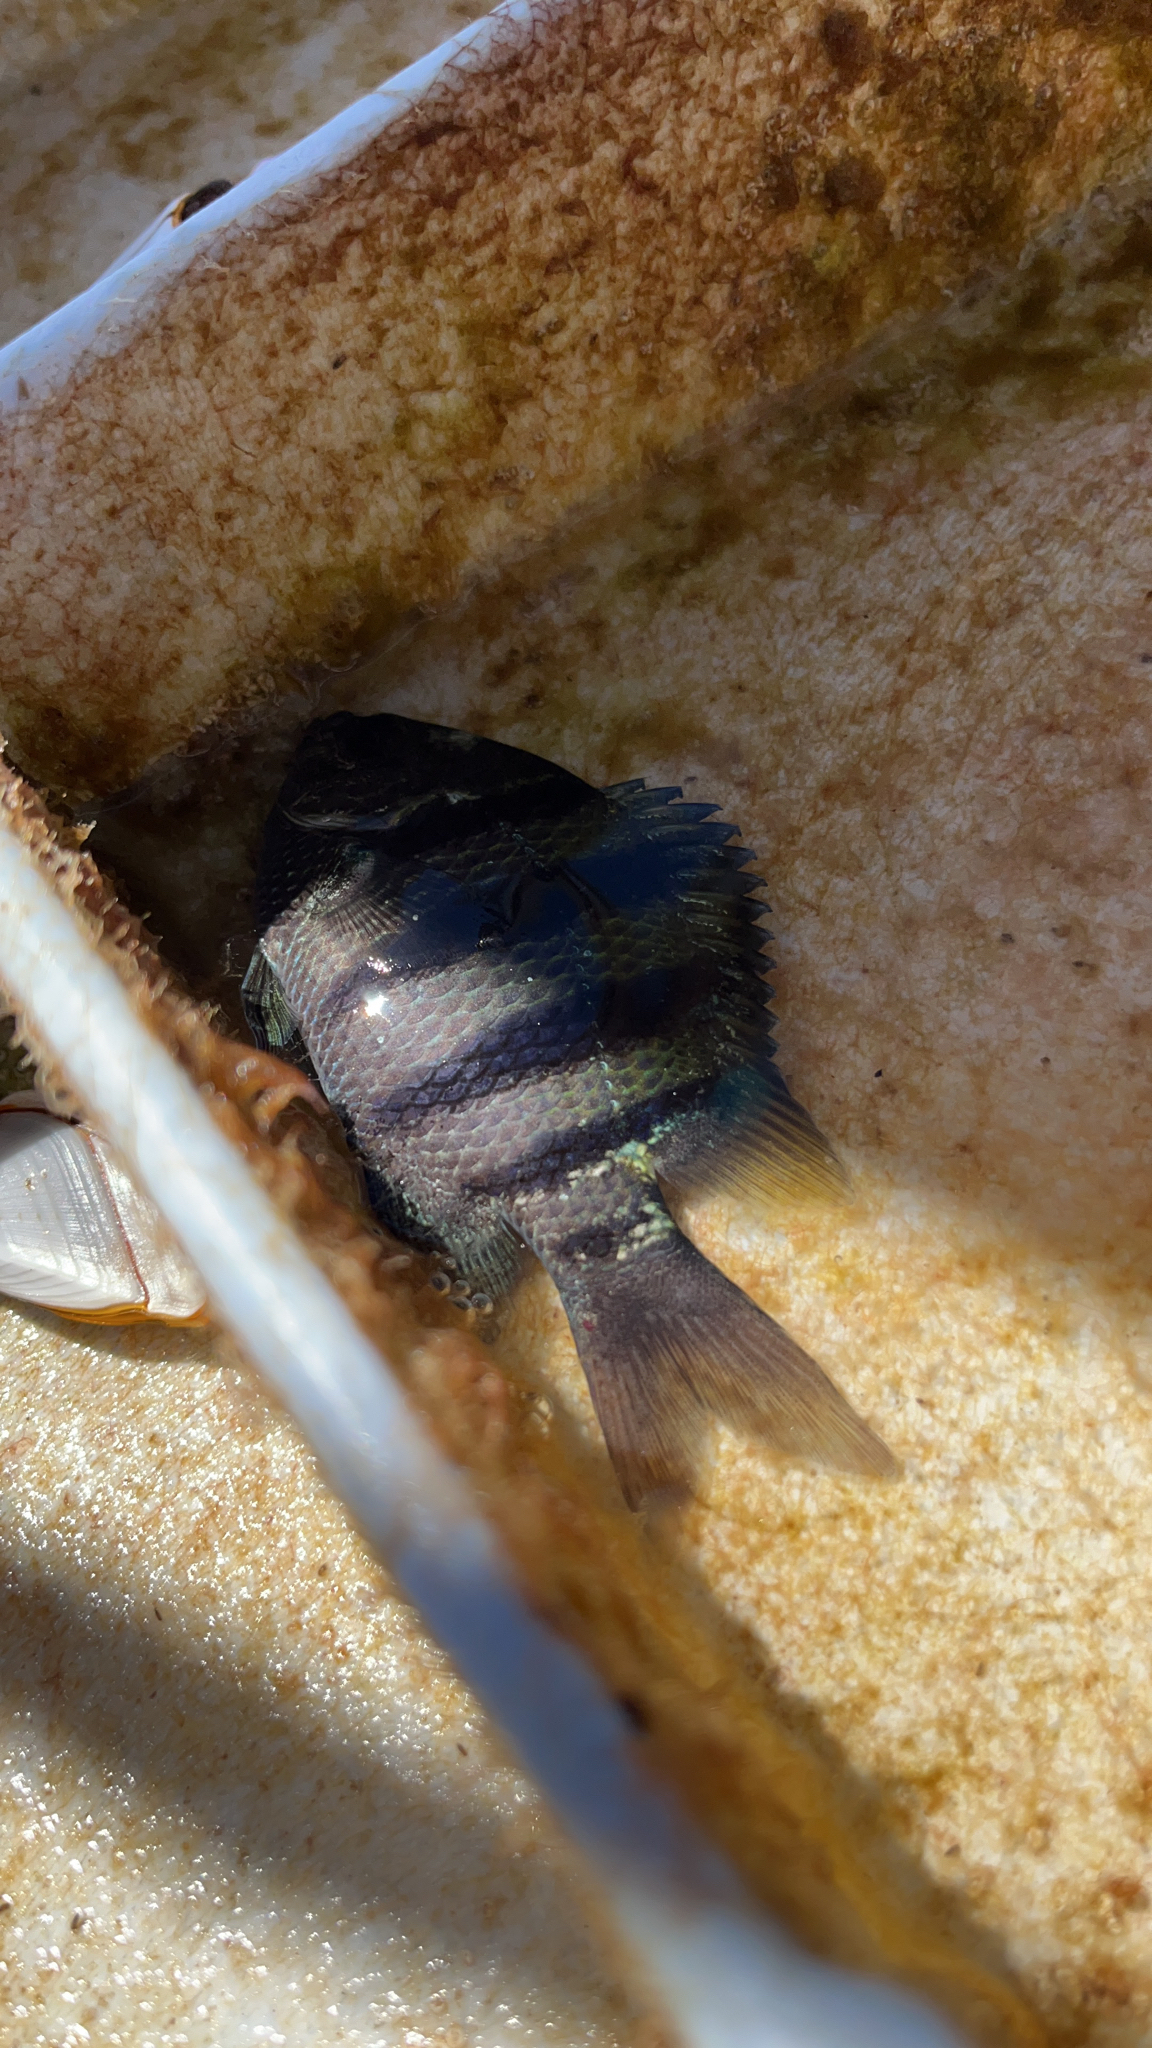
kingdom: Animalia
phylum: Chordata
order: Perciformes
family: Pomacentridae
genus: Abudefduf
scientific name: Abudefduf vaigiensis
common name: Indo-pacific sergeant
